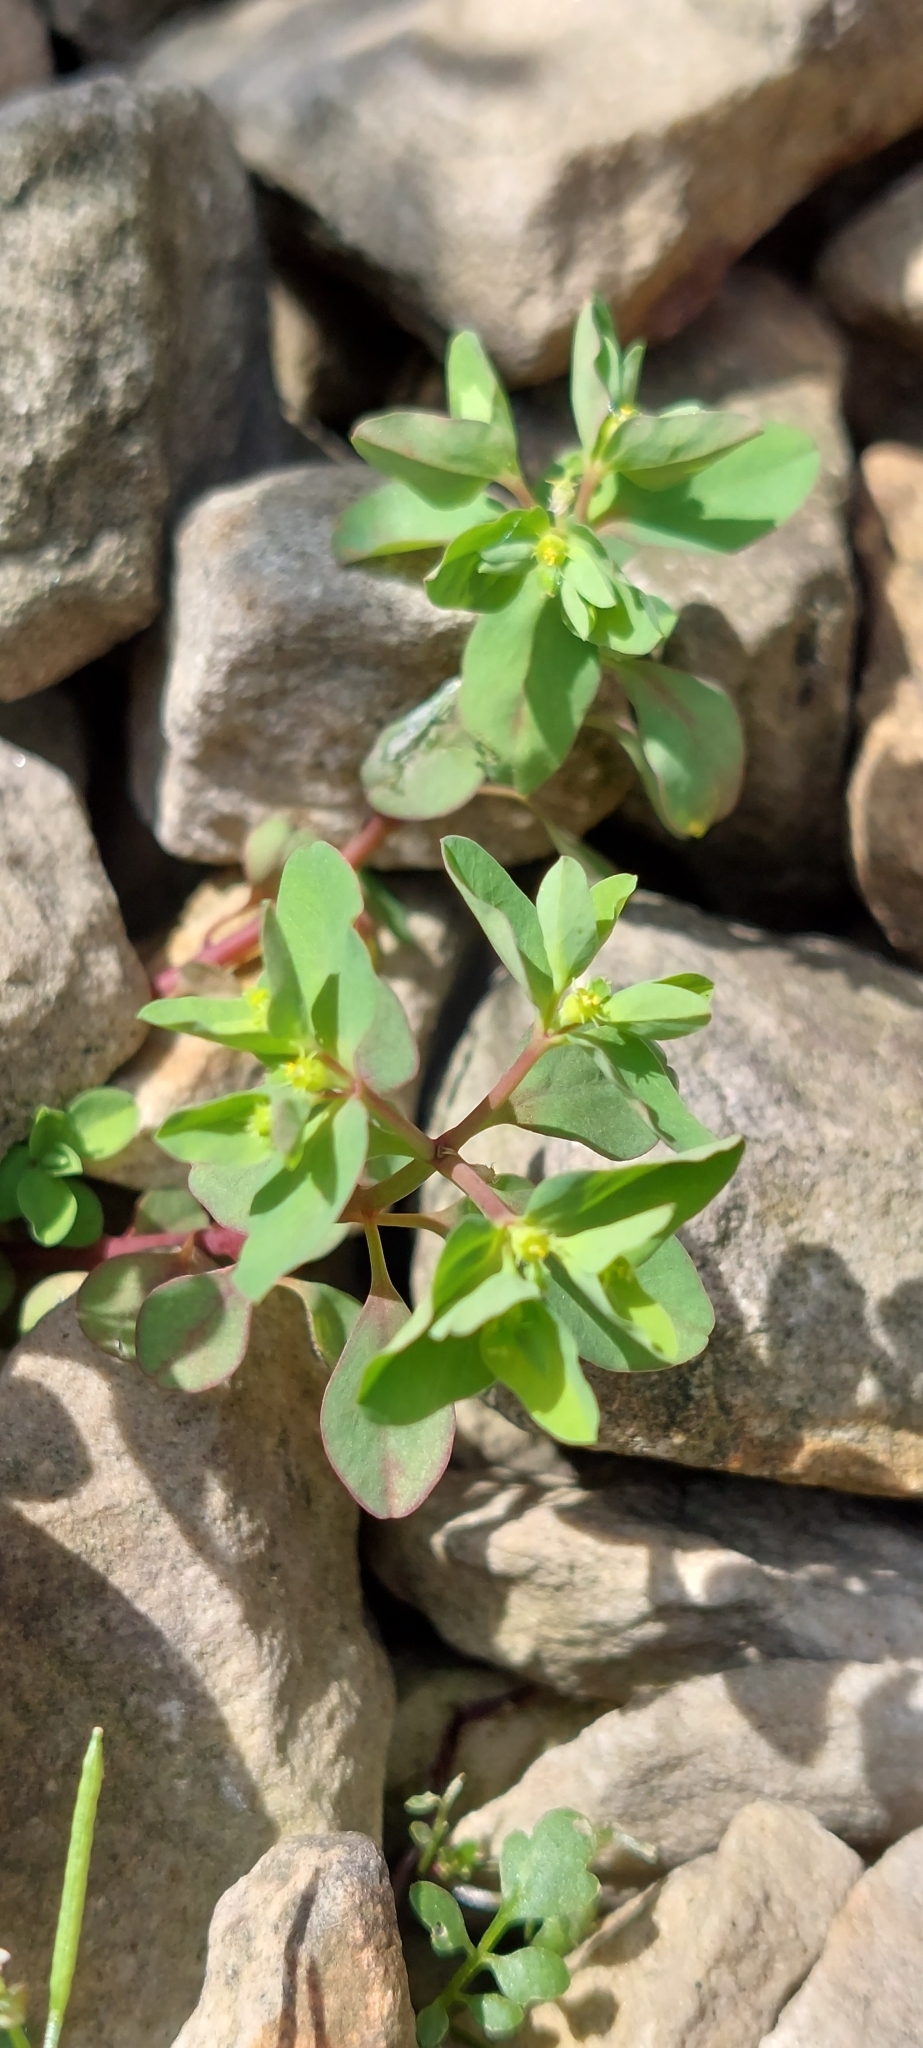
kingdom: Plantae
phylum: Tracheophyta
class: Magnoliopsida
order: Malpighiales
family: Euphorbiaceae
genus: Euphorbia
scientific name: Euphorbia peplus
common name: Petty spurge
